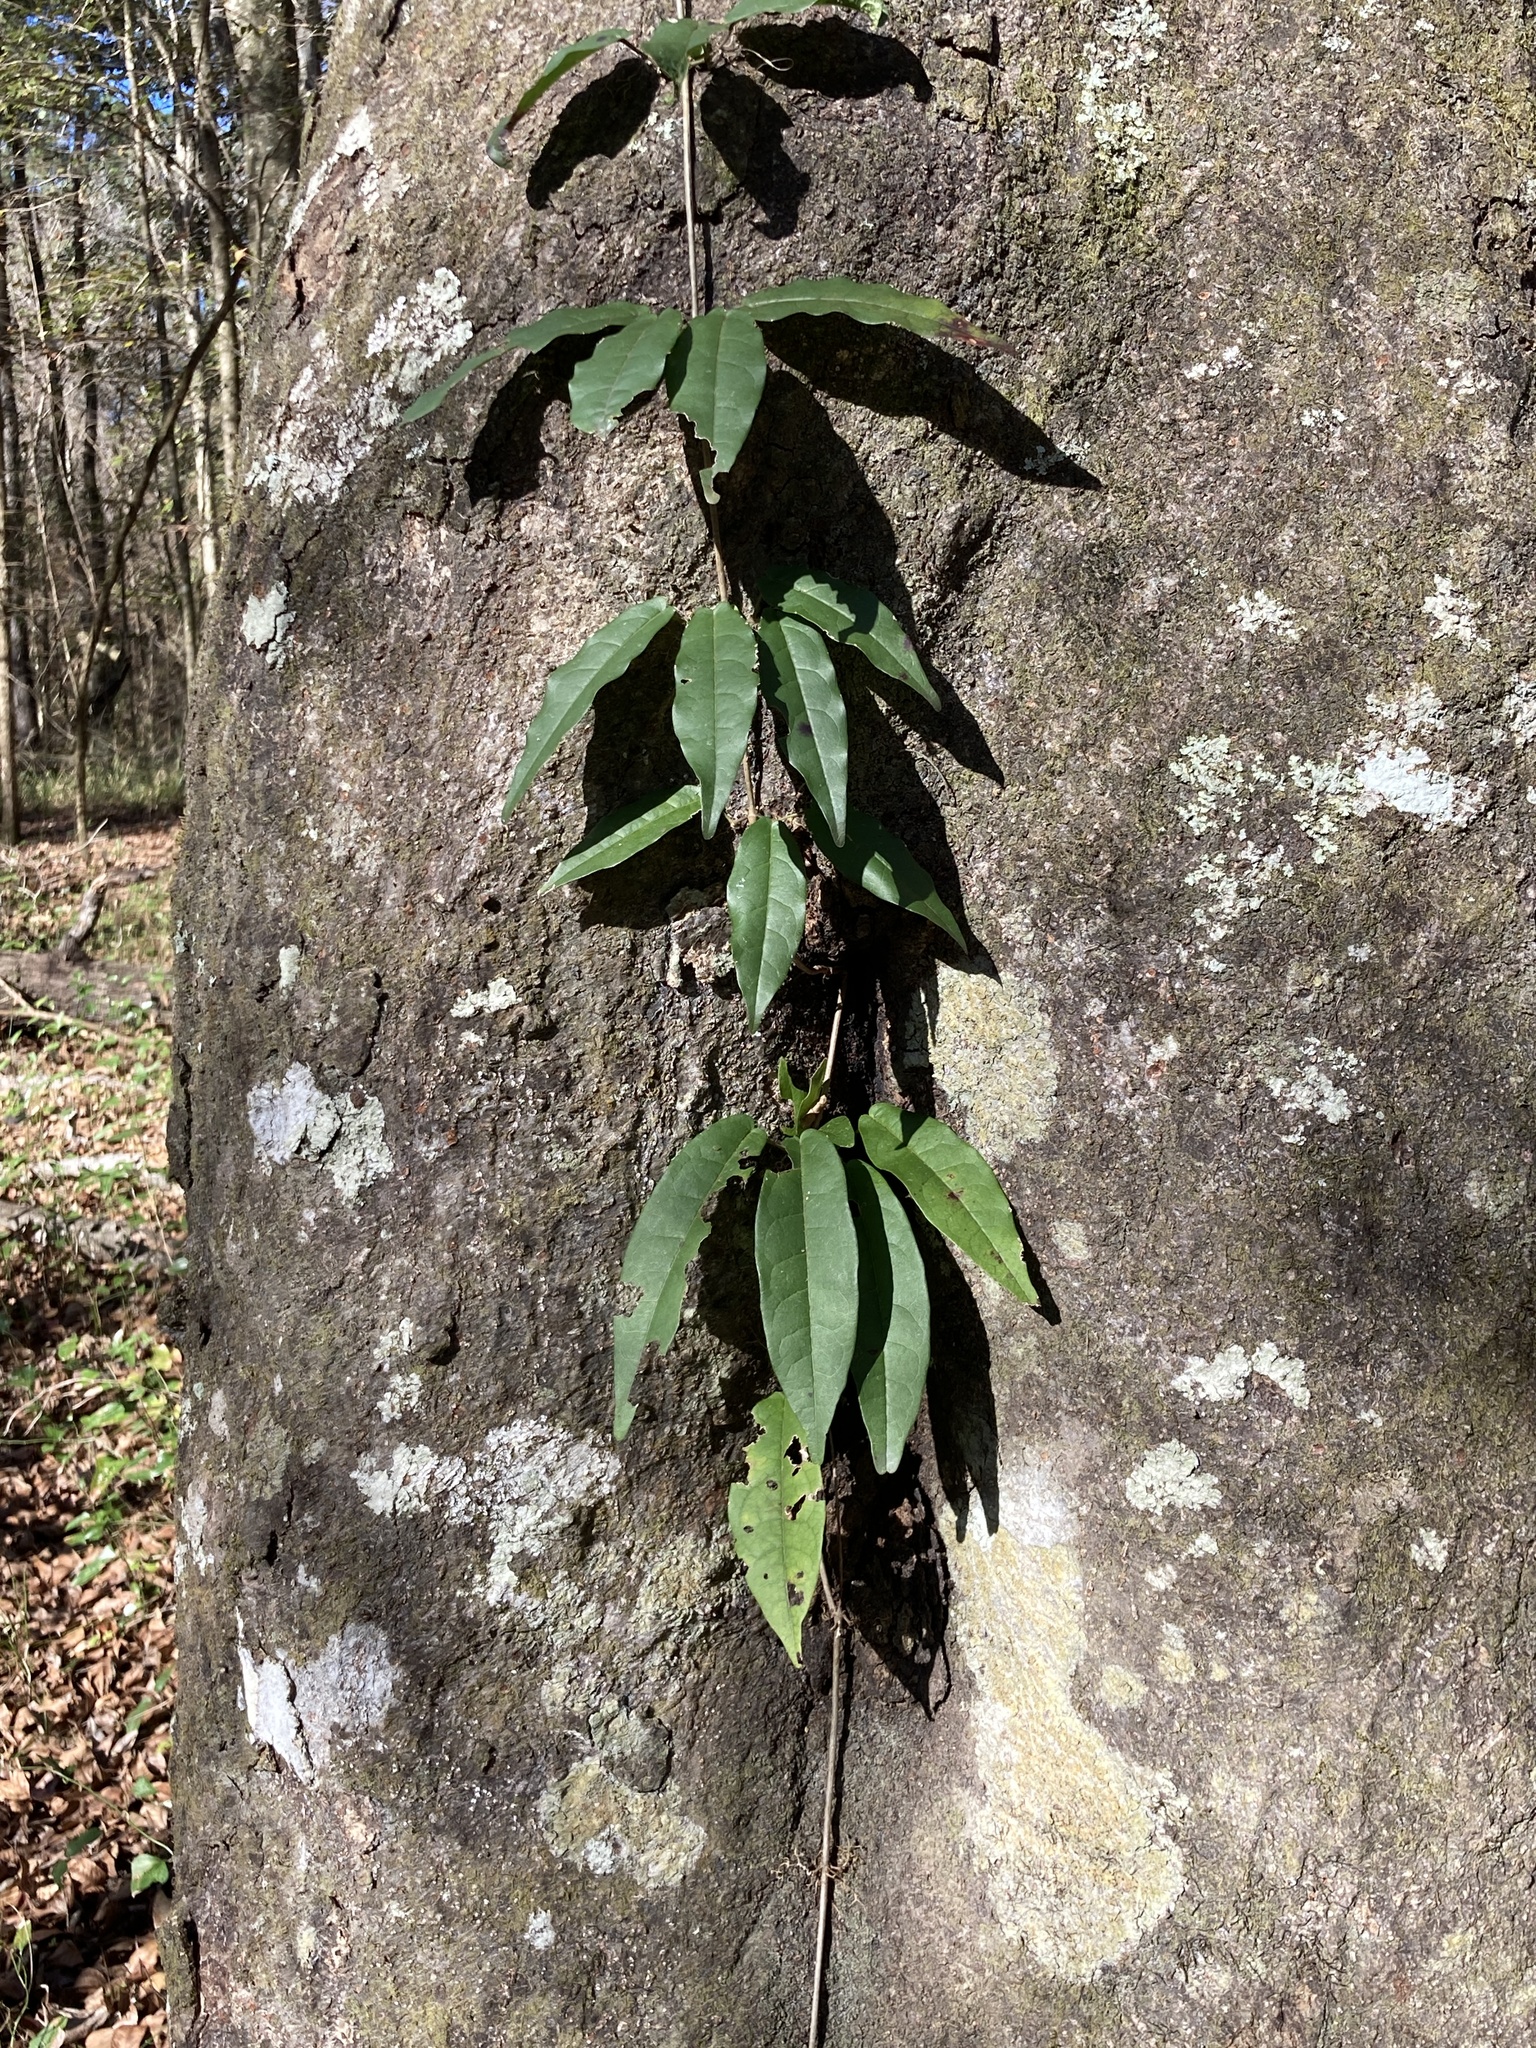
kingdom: Plantae
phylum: Tracheophyta
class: Magnoliopsida
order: Lamiales
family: Bignoniaceae
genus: Bignonia
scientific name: Bignonia capreolata
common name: Crossvine
